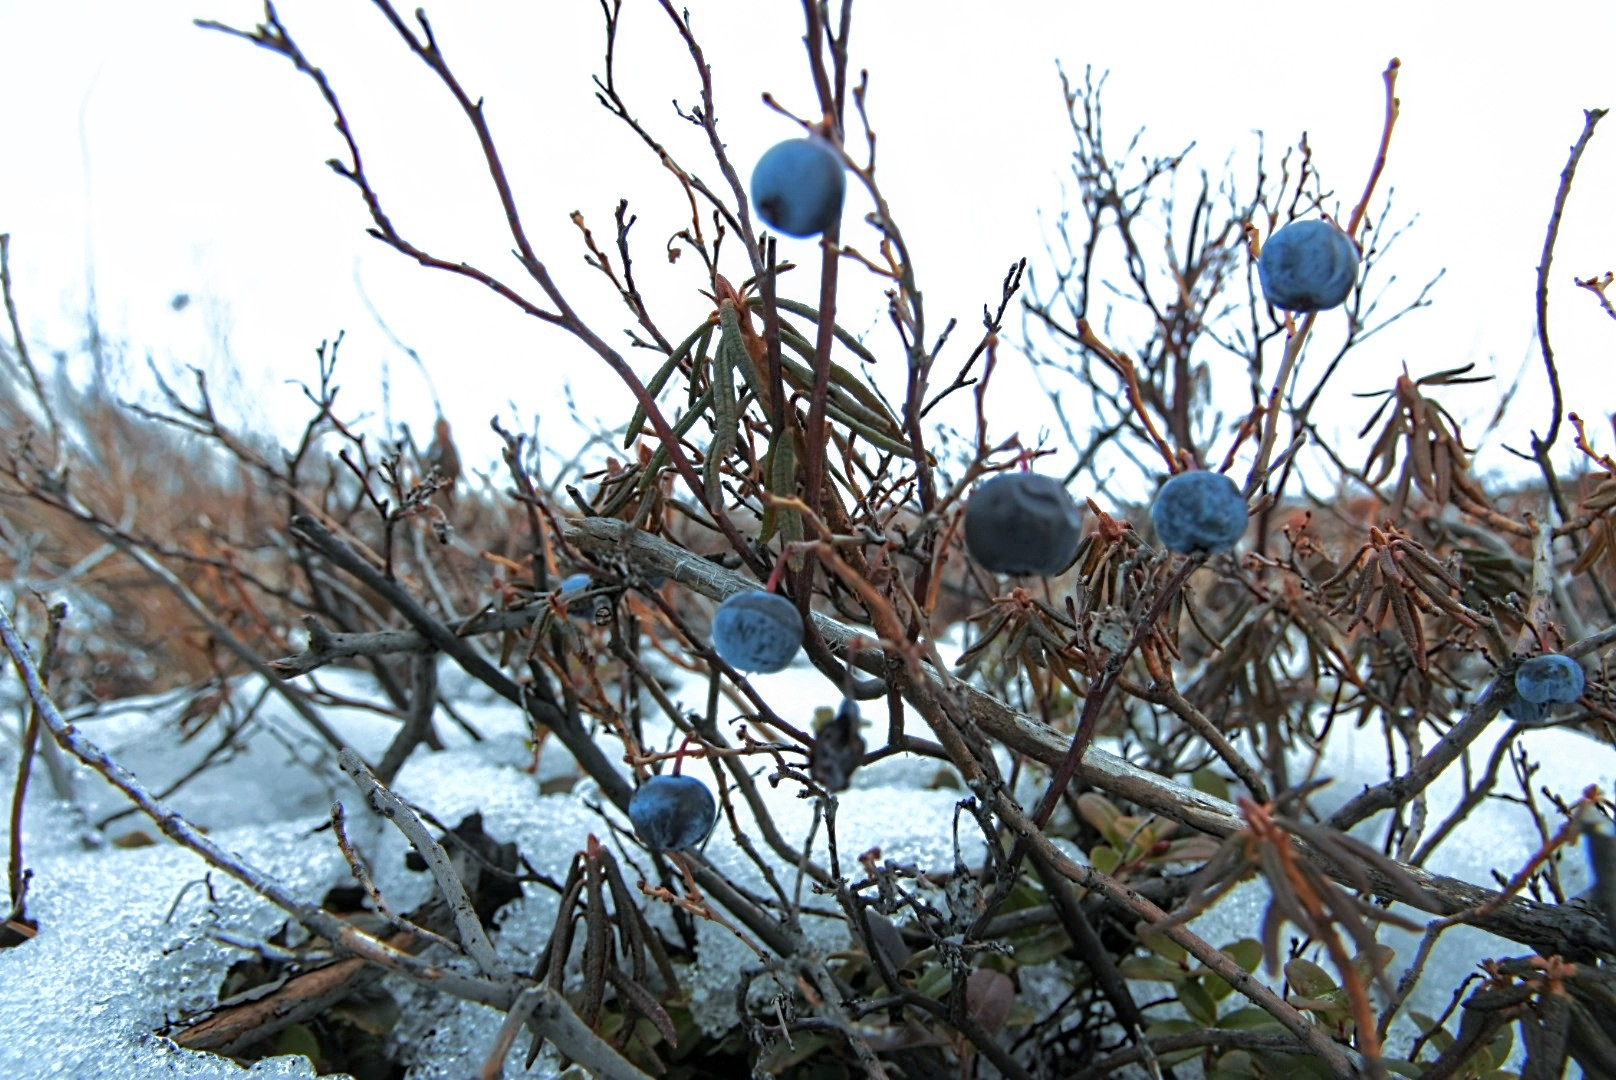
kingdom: Plantae
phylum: Tracheophyta
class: Magnoliopsida
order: Ericales
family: Ericaceae
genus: Vaccinium
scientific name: Vaccinium uliginosum
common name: Bog bilberry
